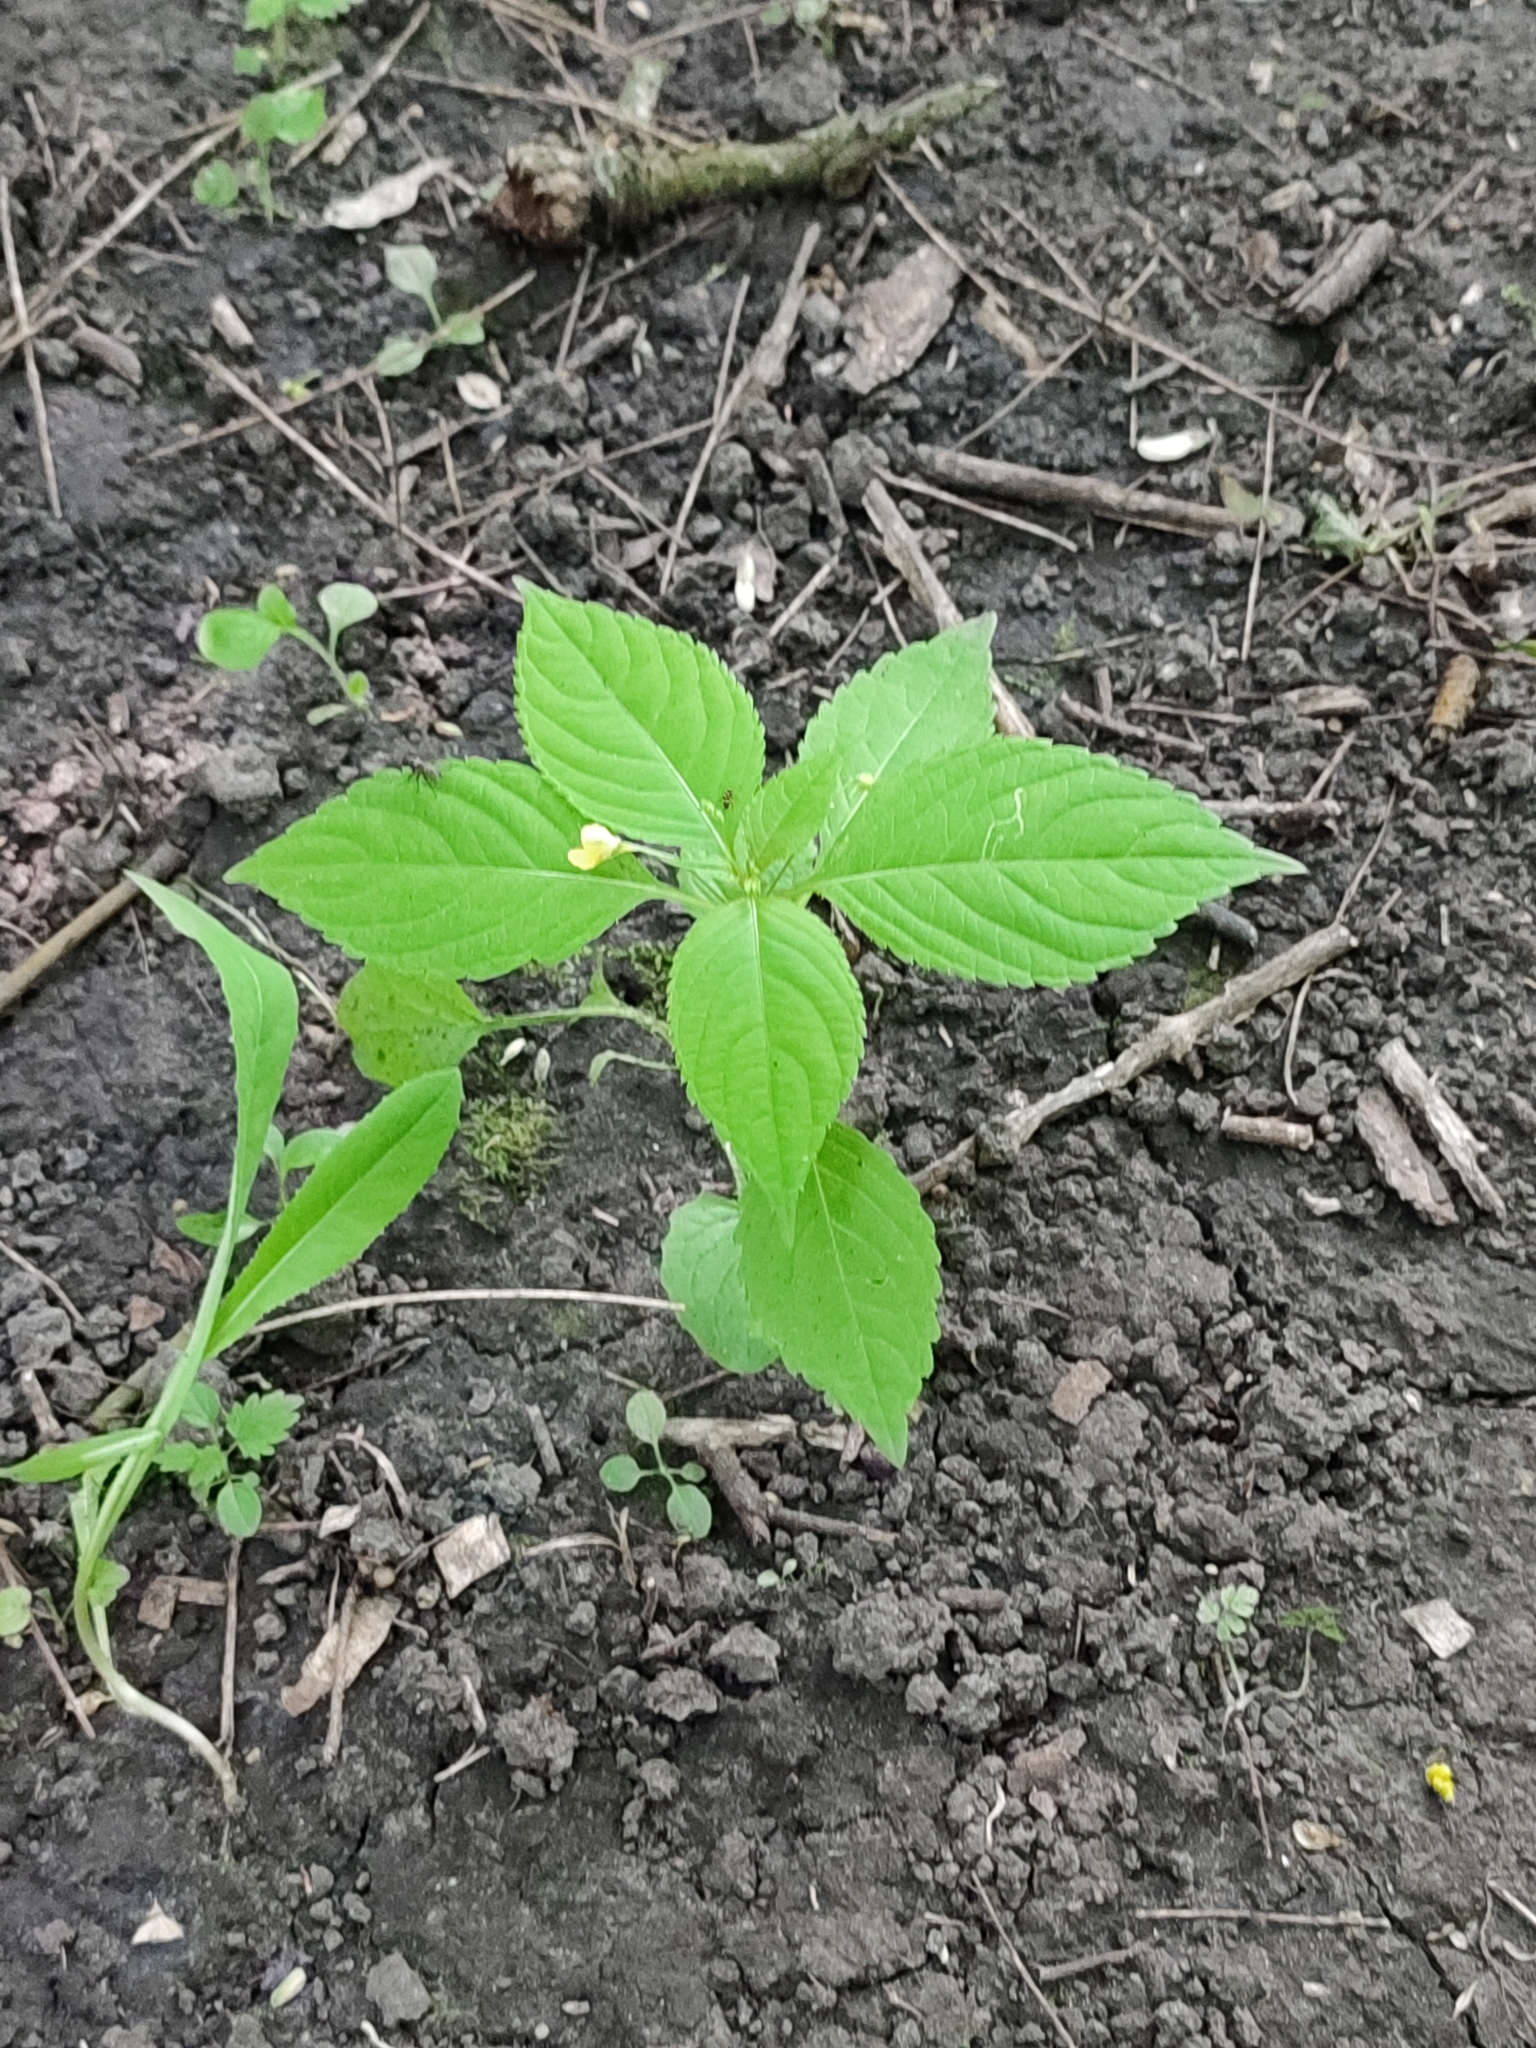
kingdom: Plantae
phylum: Tracheophyta
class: Magnoliopsida
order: Ericales
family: Balsaminaceae
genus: Impatiens
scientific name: Impatiens parviflora
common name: Small balsam
